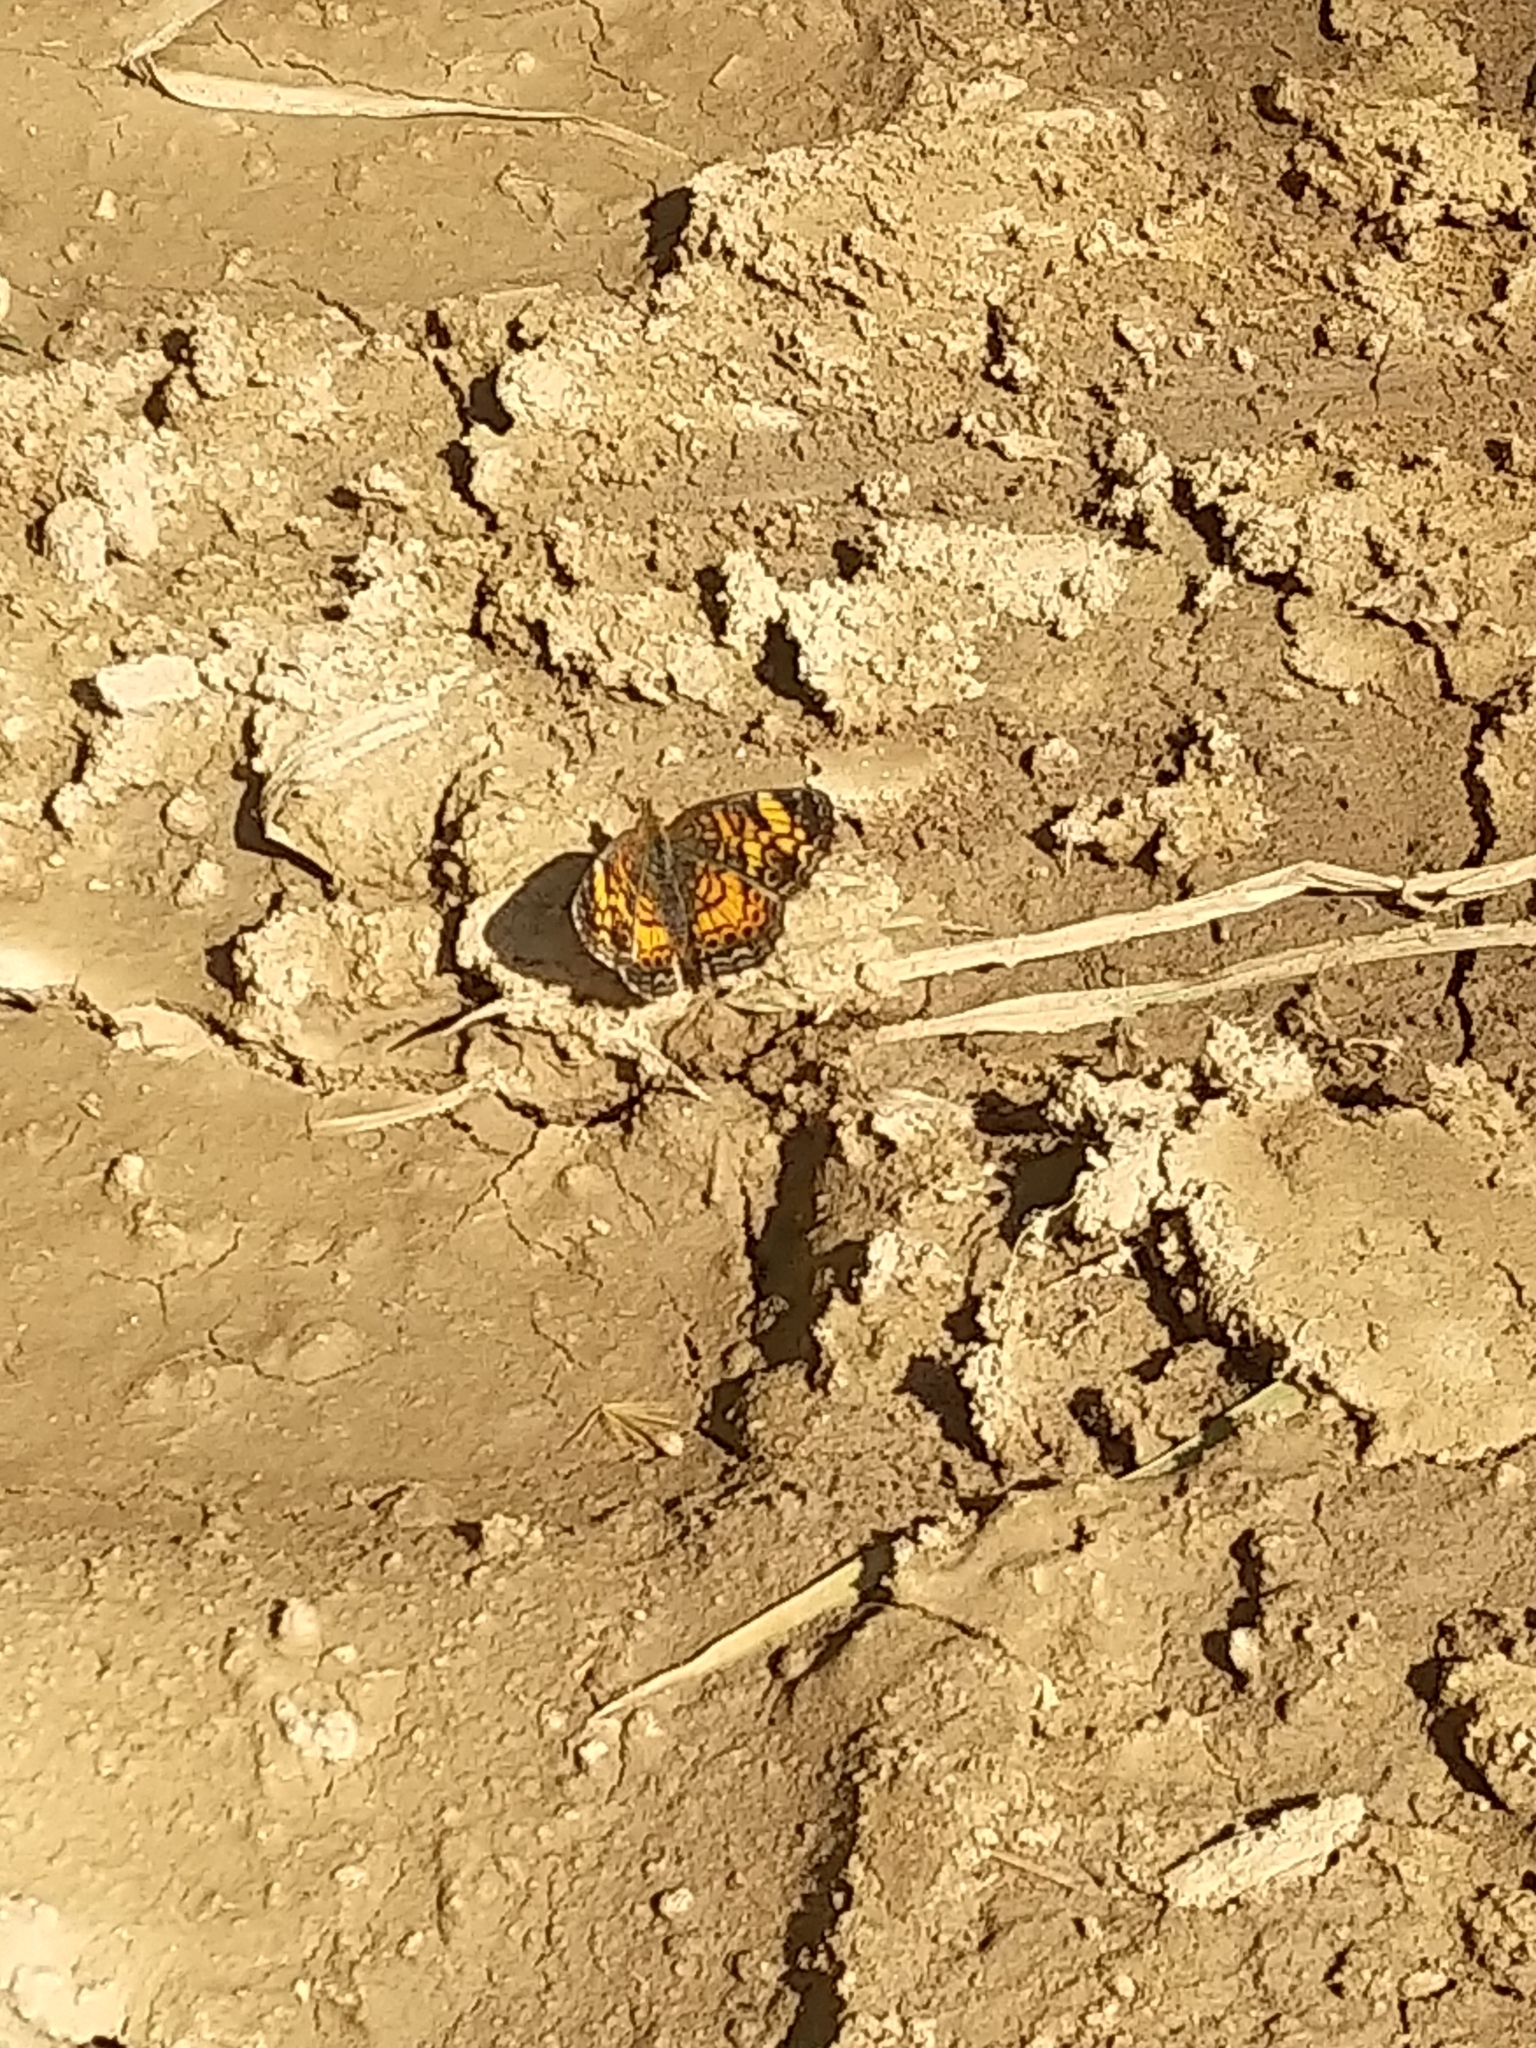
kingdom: Animalia
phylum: Arthropoda
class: Insecta
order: Lepidoptera
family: Nymphalidae
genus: Phyciodes
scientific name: Phyciodes tharos
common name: Pearl crescent
